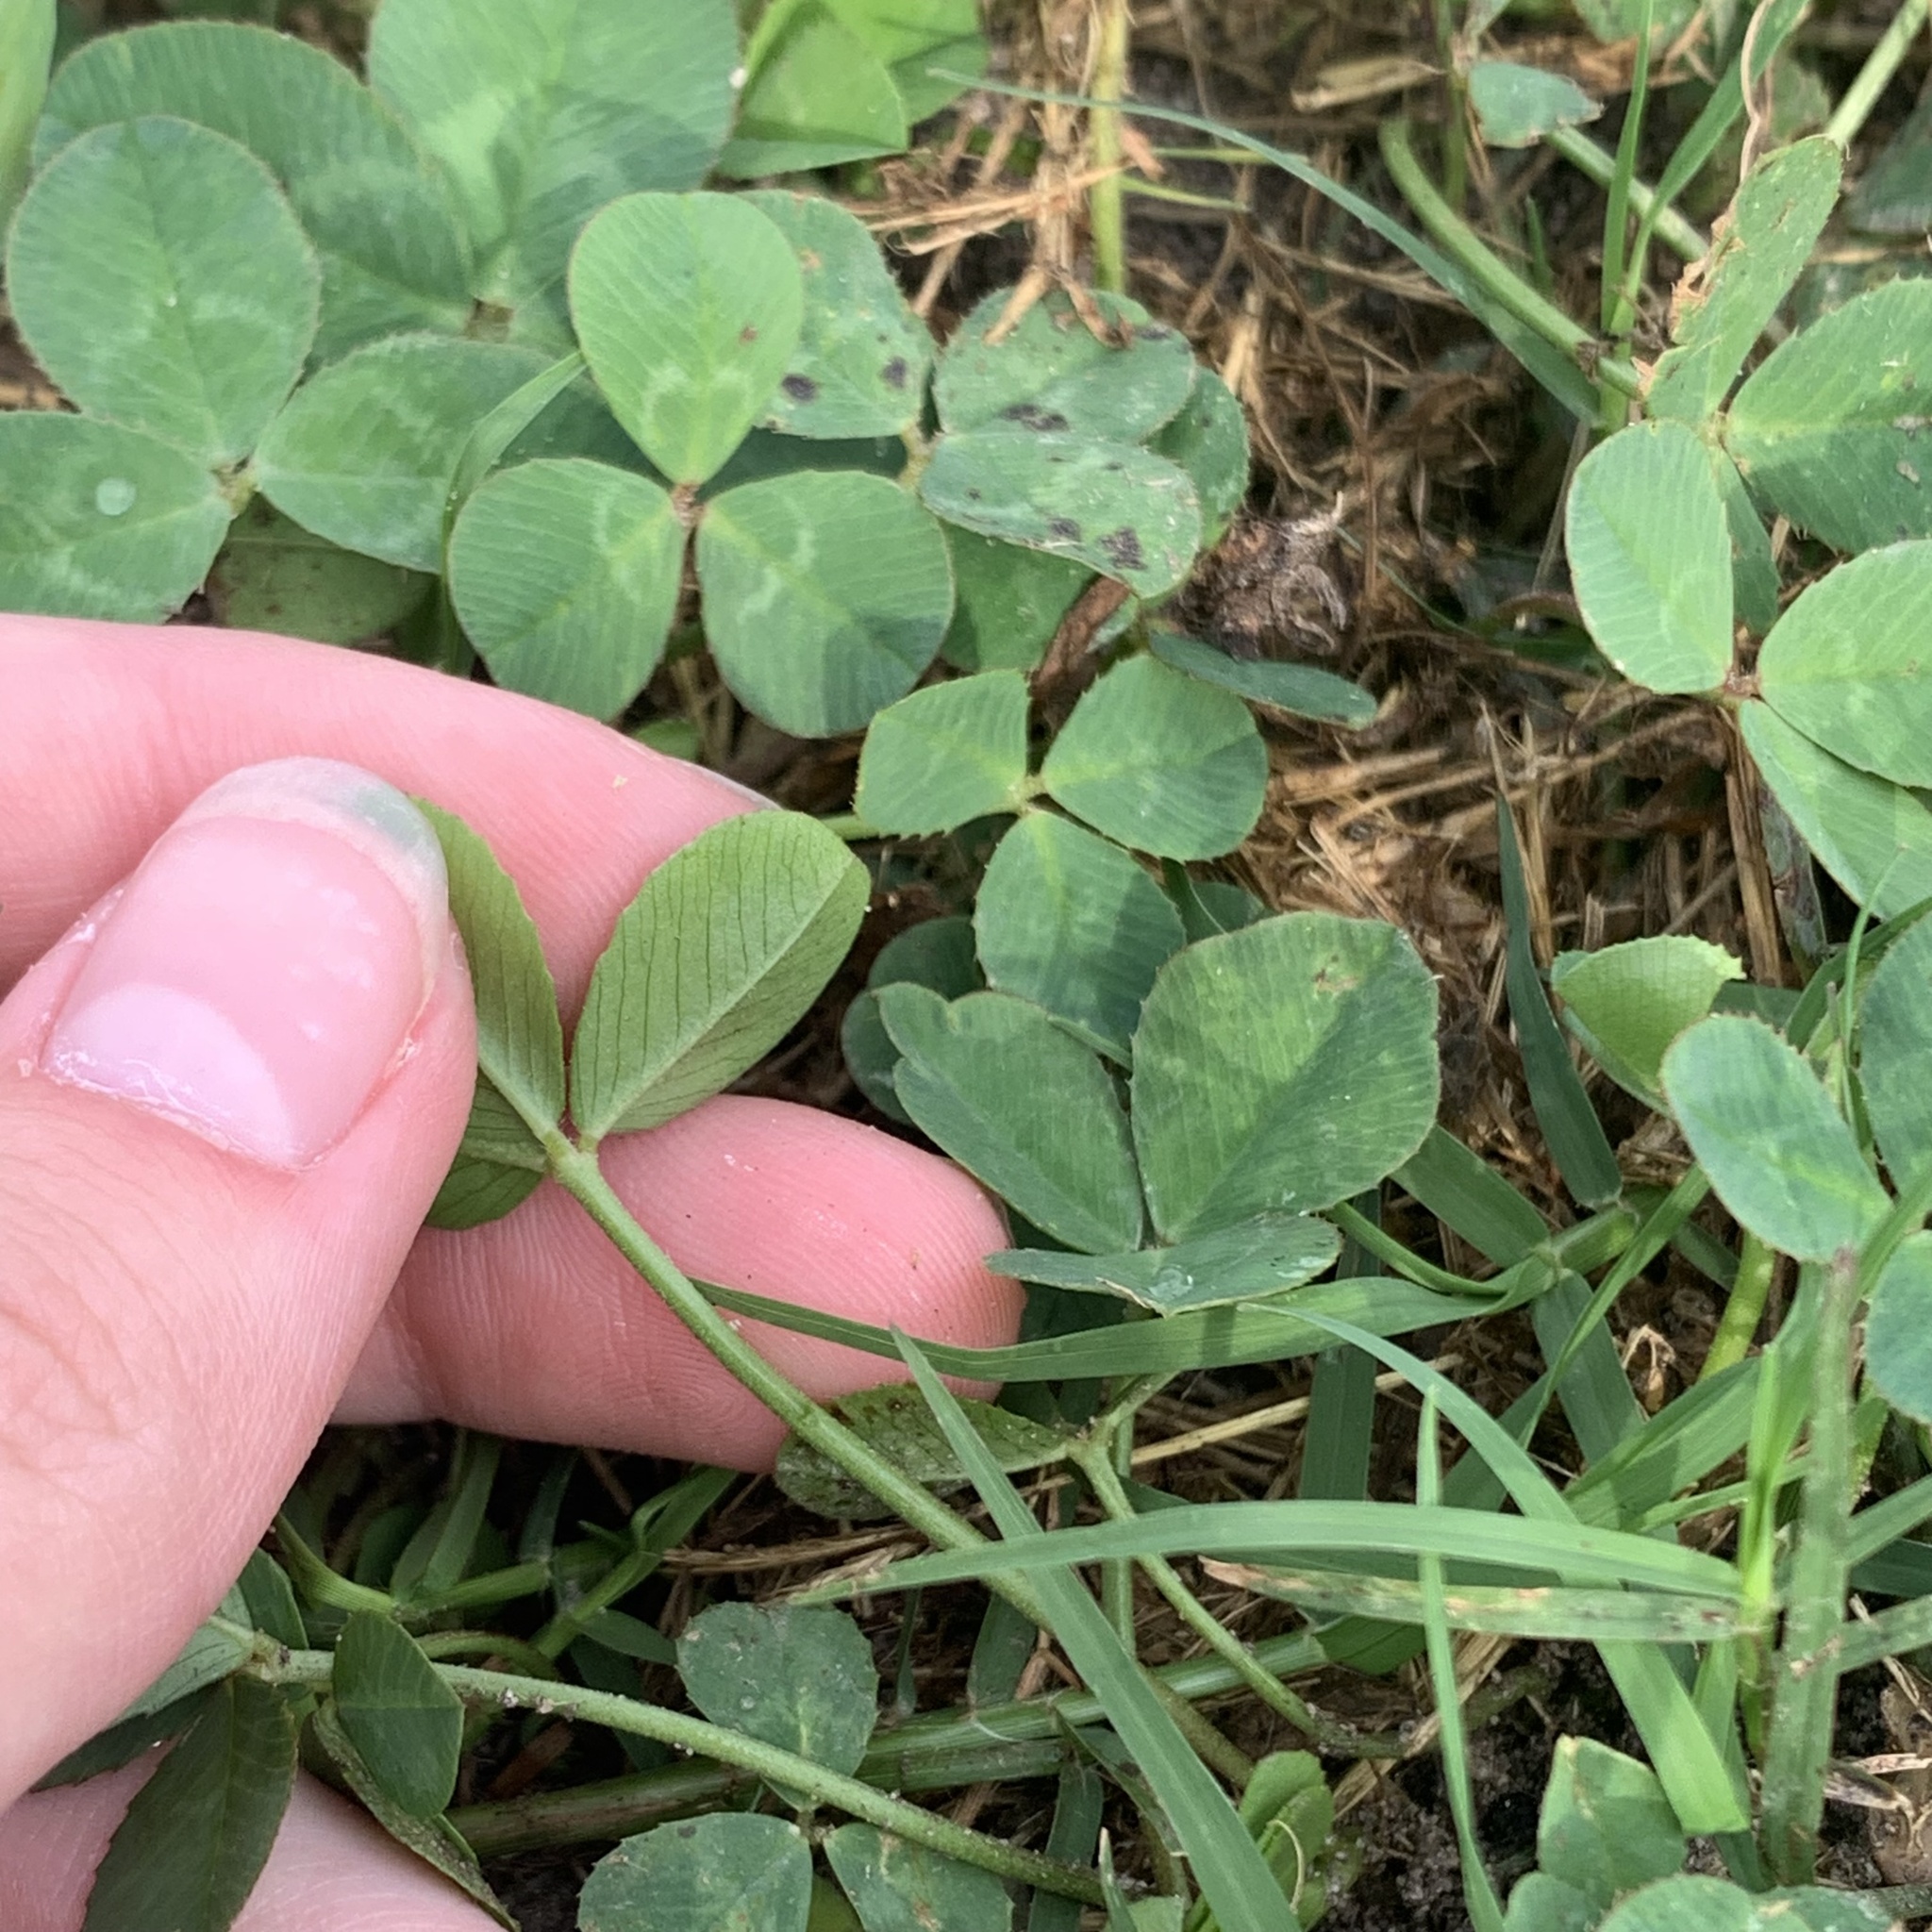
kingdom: Plantae
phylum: Tracheophyta
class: Magnoliopsida
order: Fabales
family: Fabaceae
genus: Trifolium
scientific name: Trifolium repens
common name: White clover
